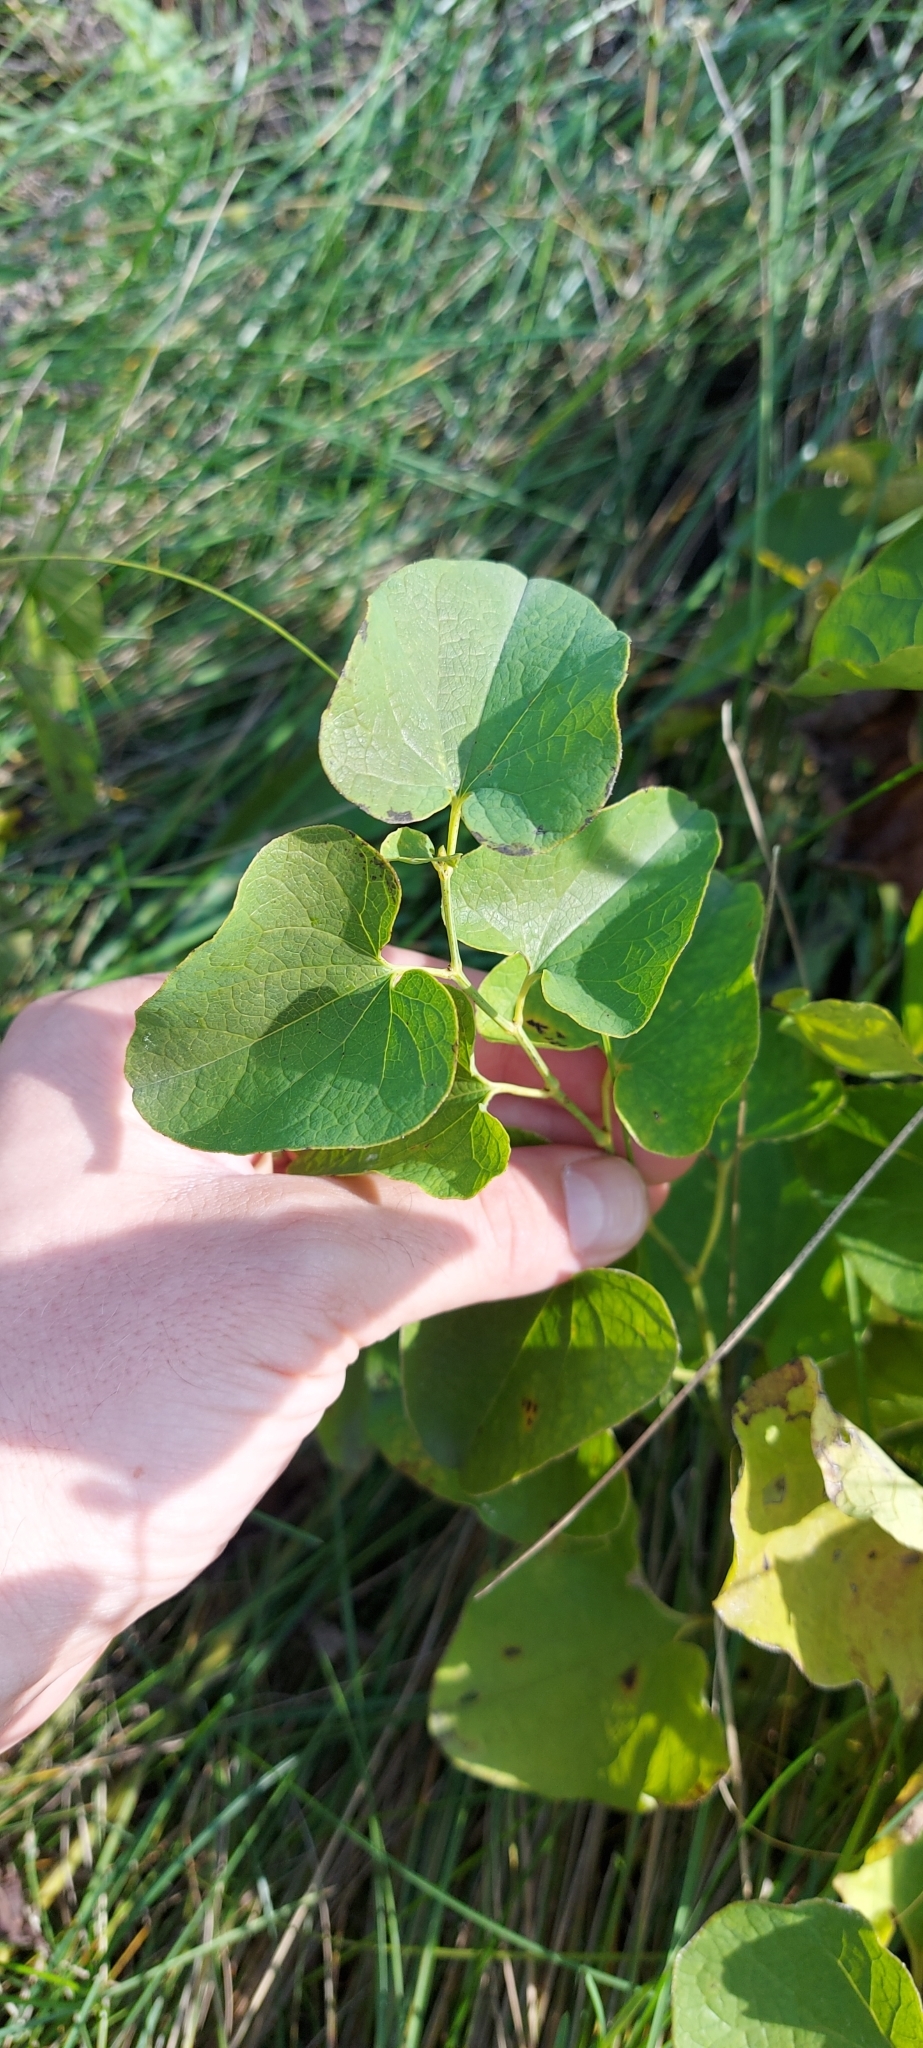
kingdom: Plantae
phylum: Tracheophyta
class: Magnoliopsida
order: Piperales
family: Aristolochiaceae
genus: Aristolochia
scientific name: Aristolochia clematitis
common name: Birthwort
